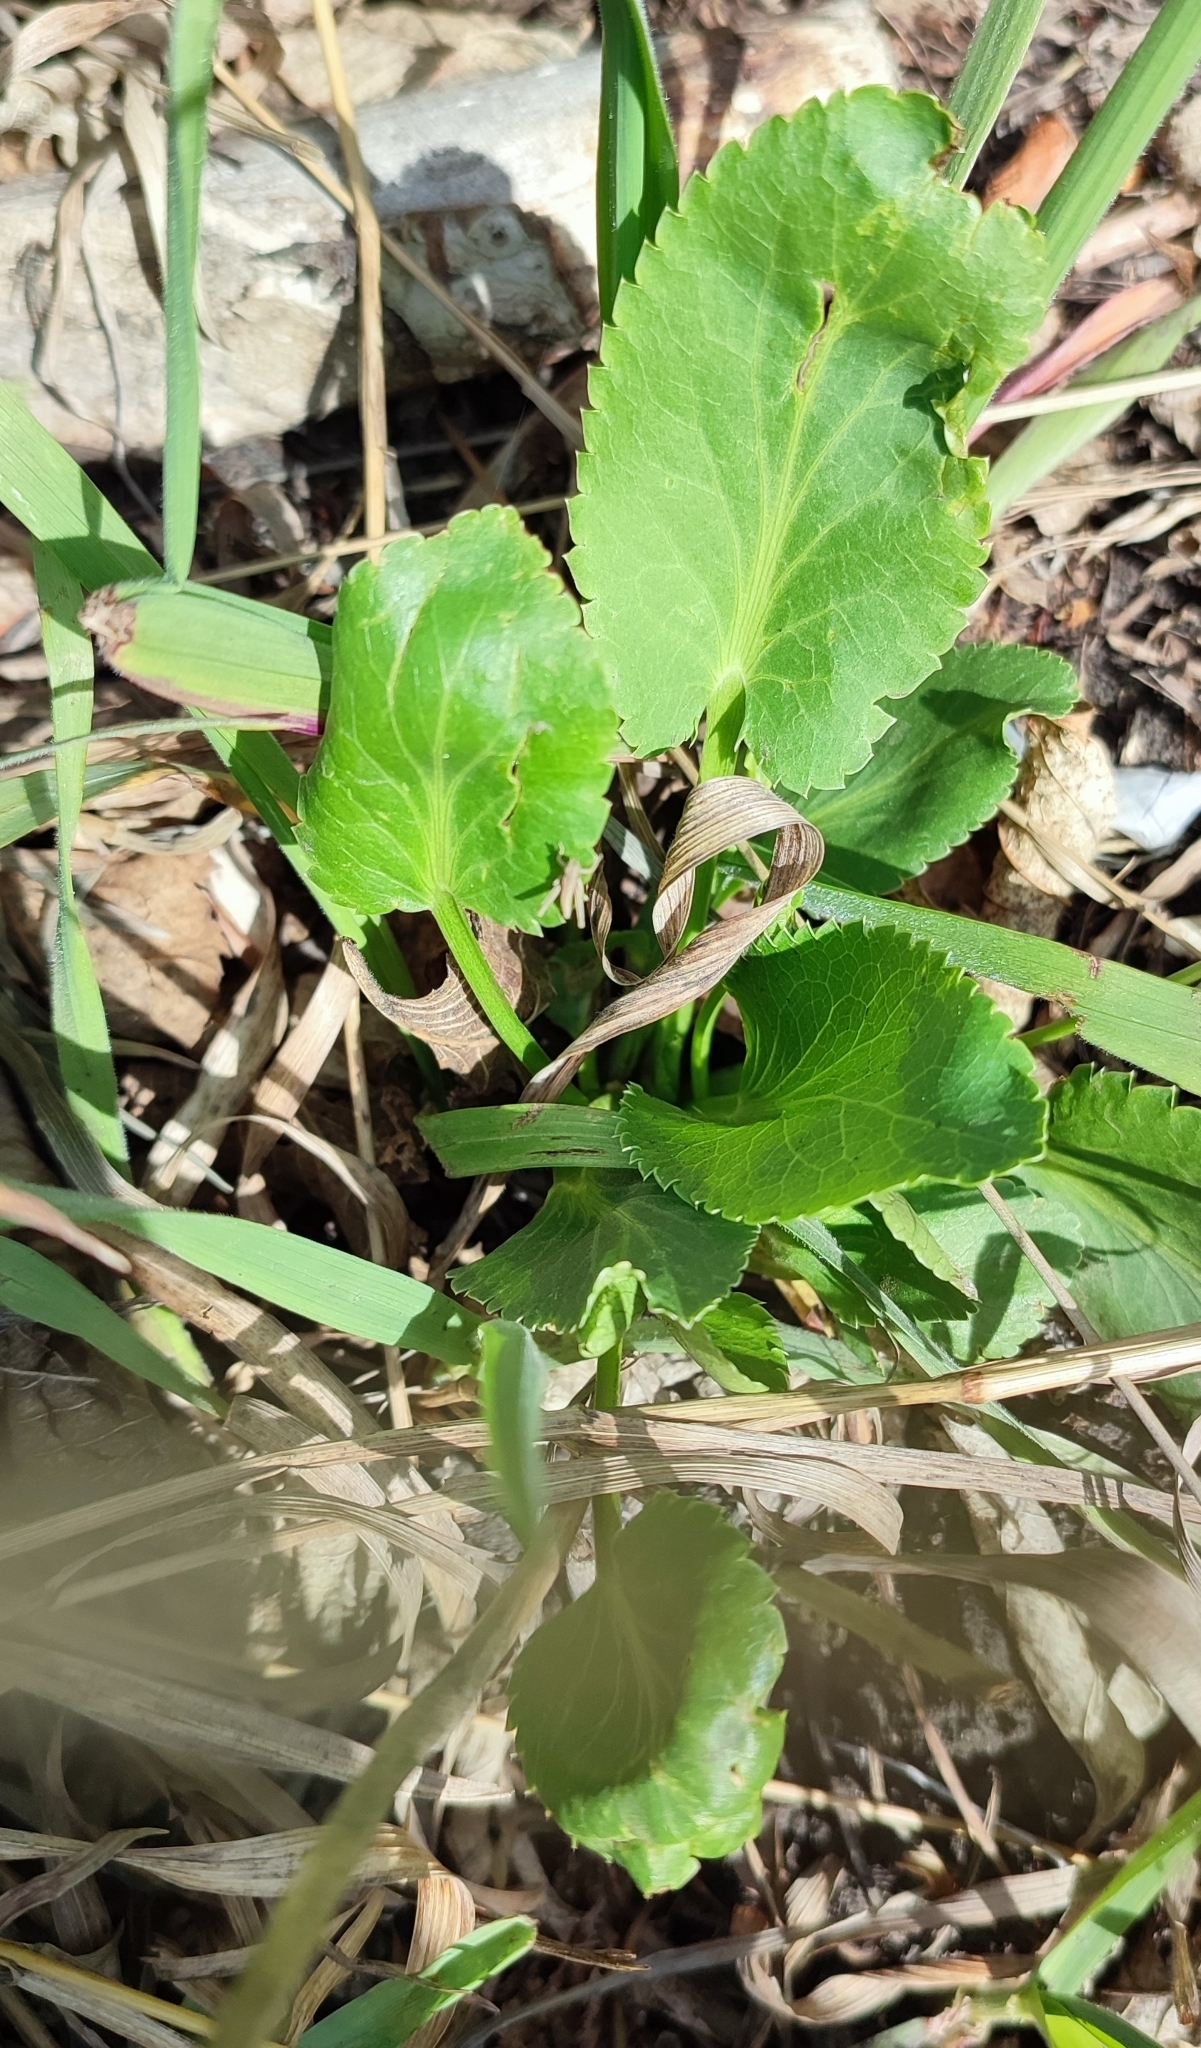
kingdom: Plantae
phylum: Tracheophyta
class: Magnoliopsida
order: Apiales
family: Apiaceae
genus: Eryngium
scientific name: Eryngium planum
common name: Blue eryngo
